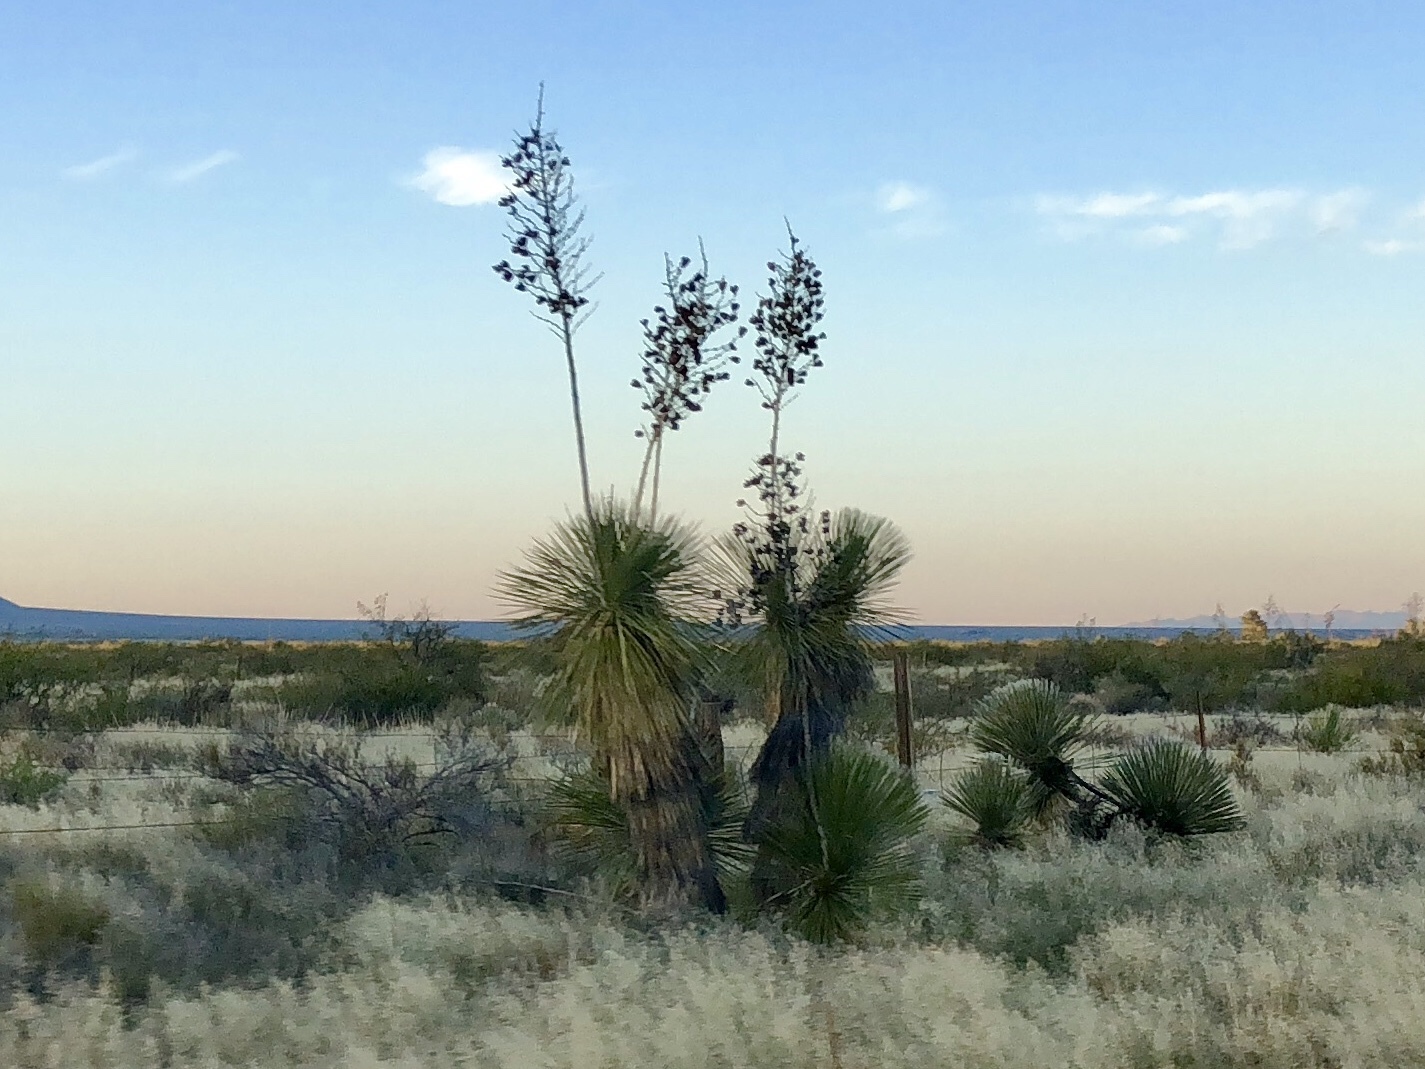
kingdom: Plantae
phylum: Tracheophyta
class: Liliopsida
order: Asparagales
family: Asparagaceae
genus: Yucca
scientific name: Yucca elata
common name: Palmella
